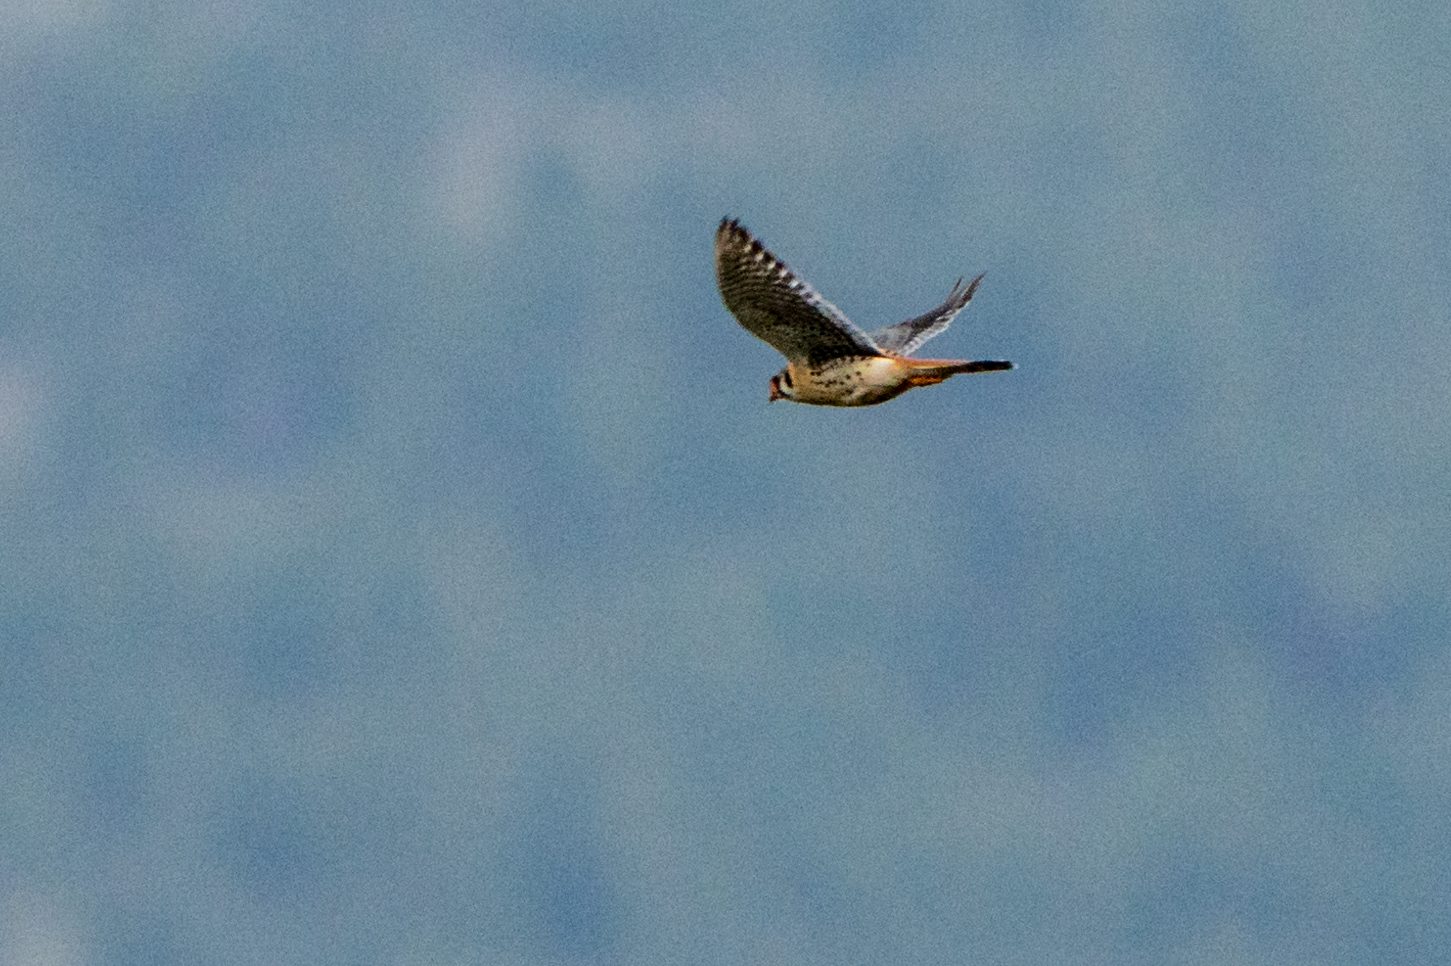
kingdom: Animalia
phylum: Chordata
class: Aves
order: Falconiformes
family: Falconidae
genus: Falco
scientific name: Falco sparverius
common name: American kestrel
